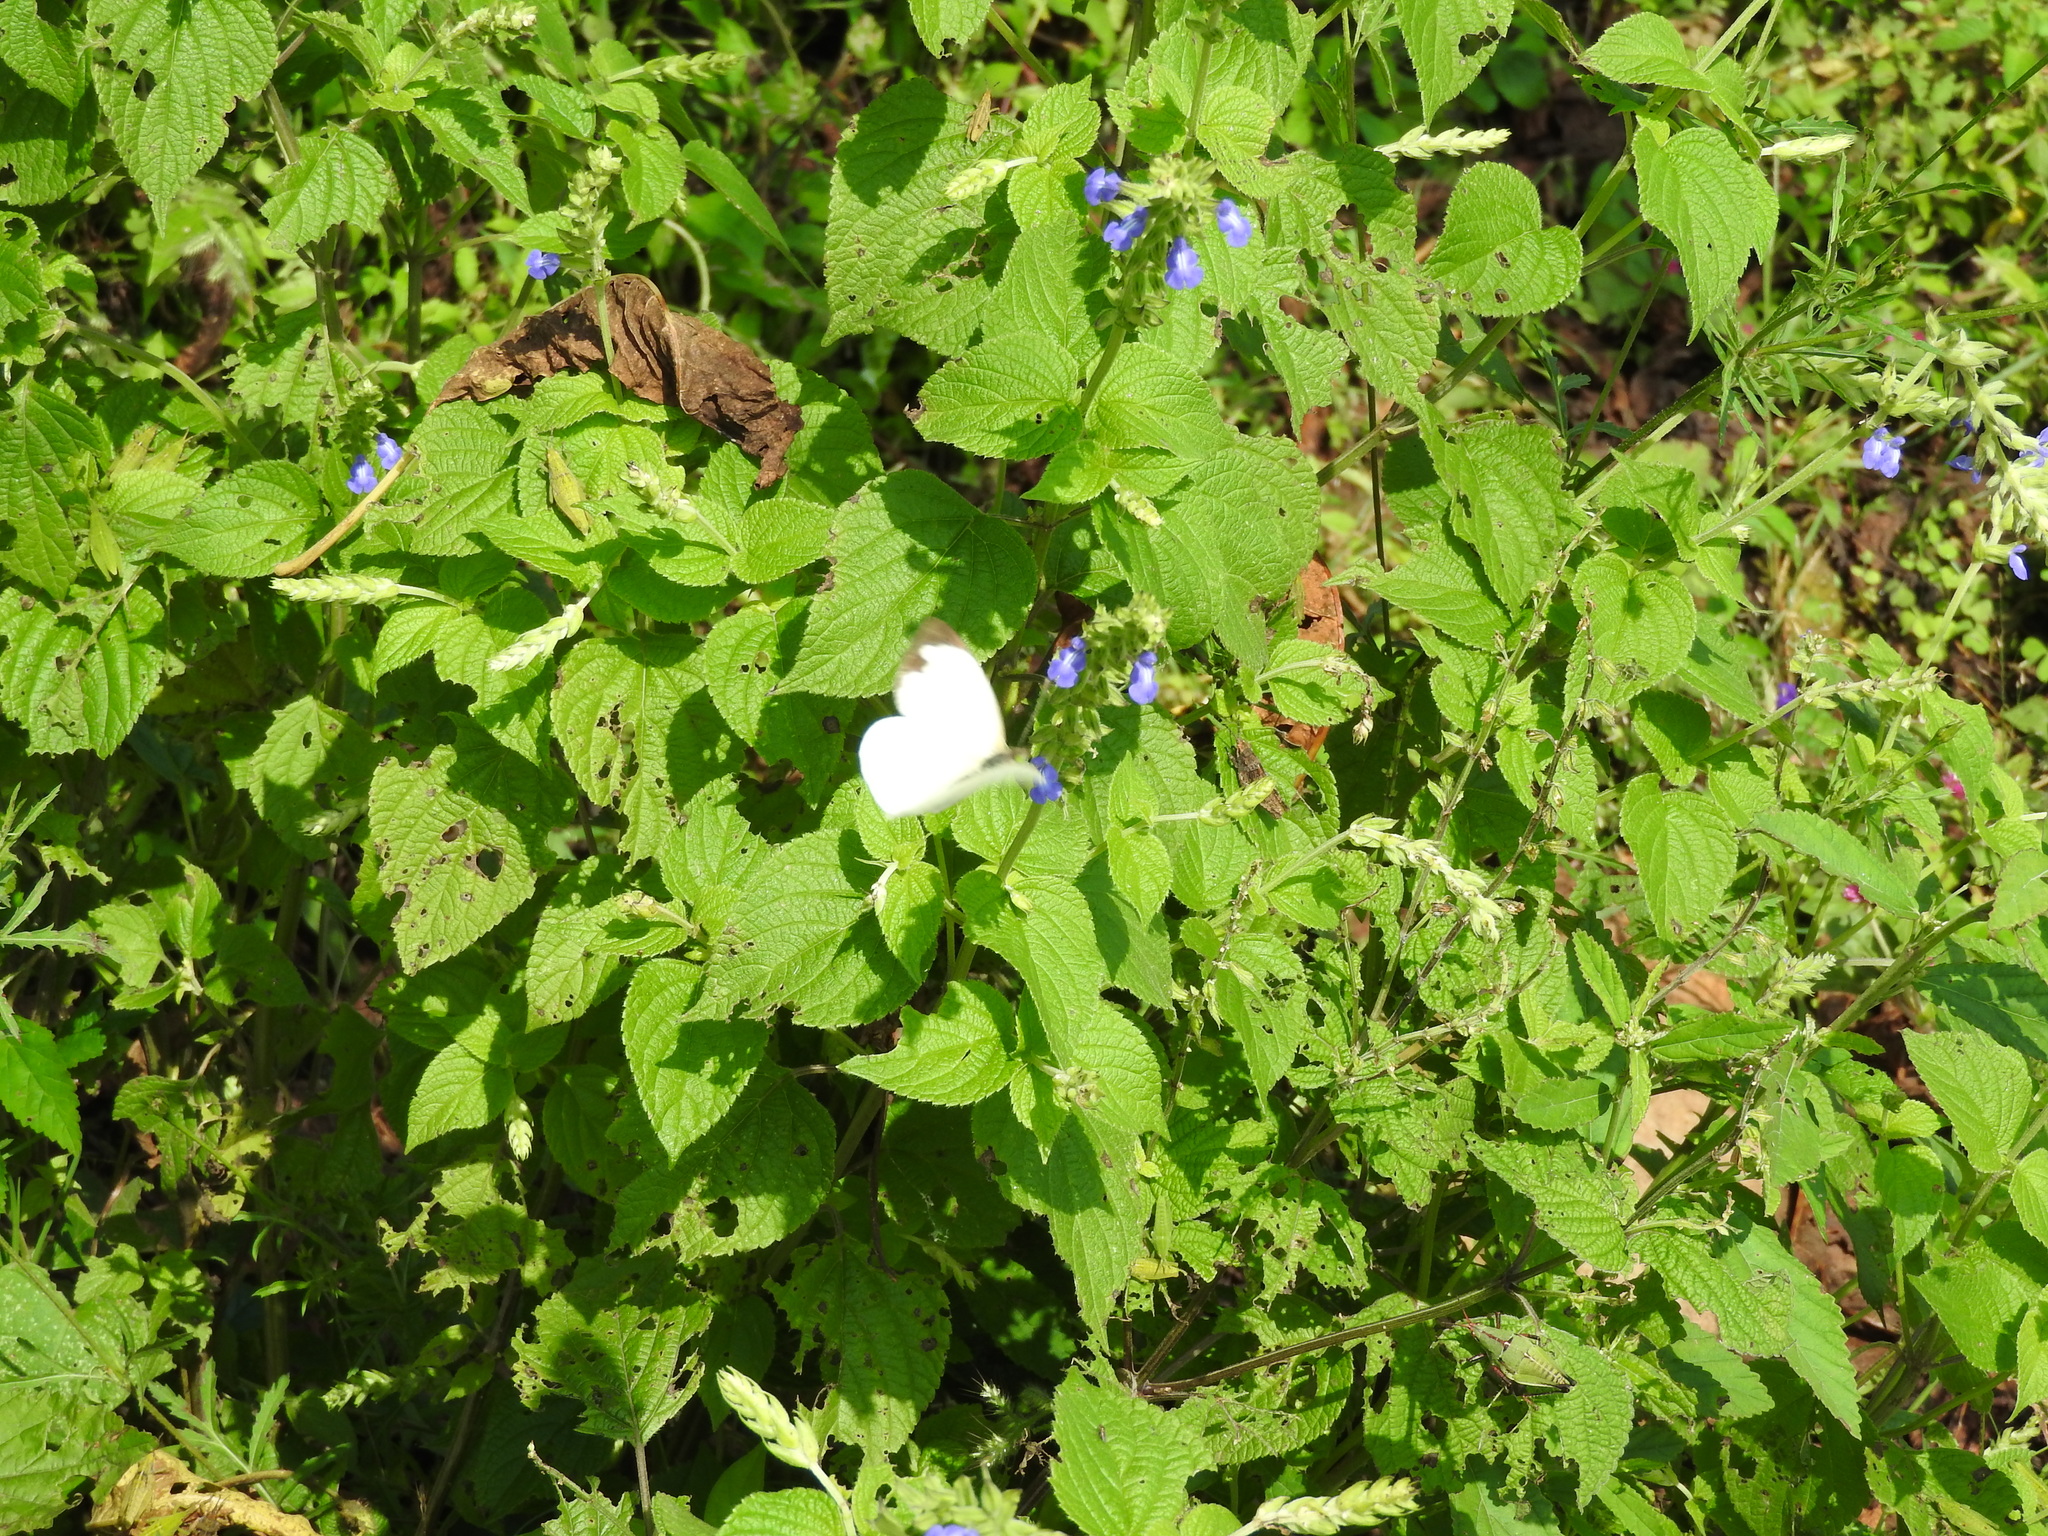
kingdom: Animalia
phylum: Arthropoda
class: Insecta
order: Lepidoptera
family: Pieridae
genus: Leptophobia
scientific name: Leptophobia aripa
